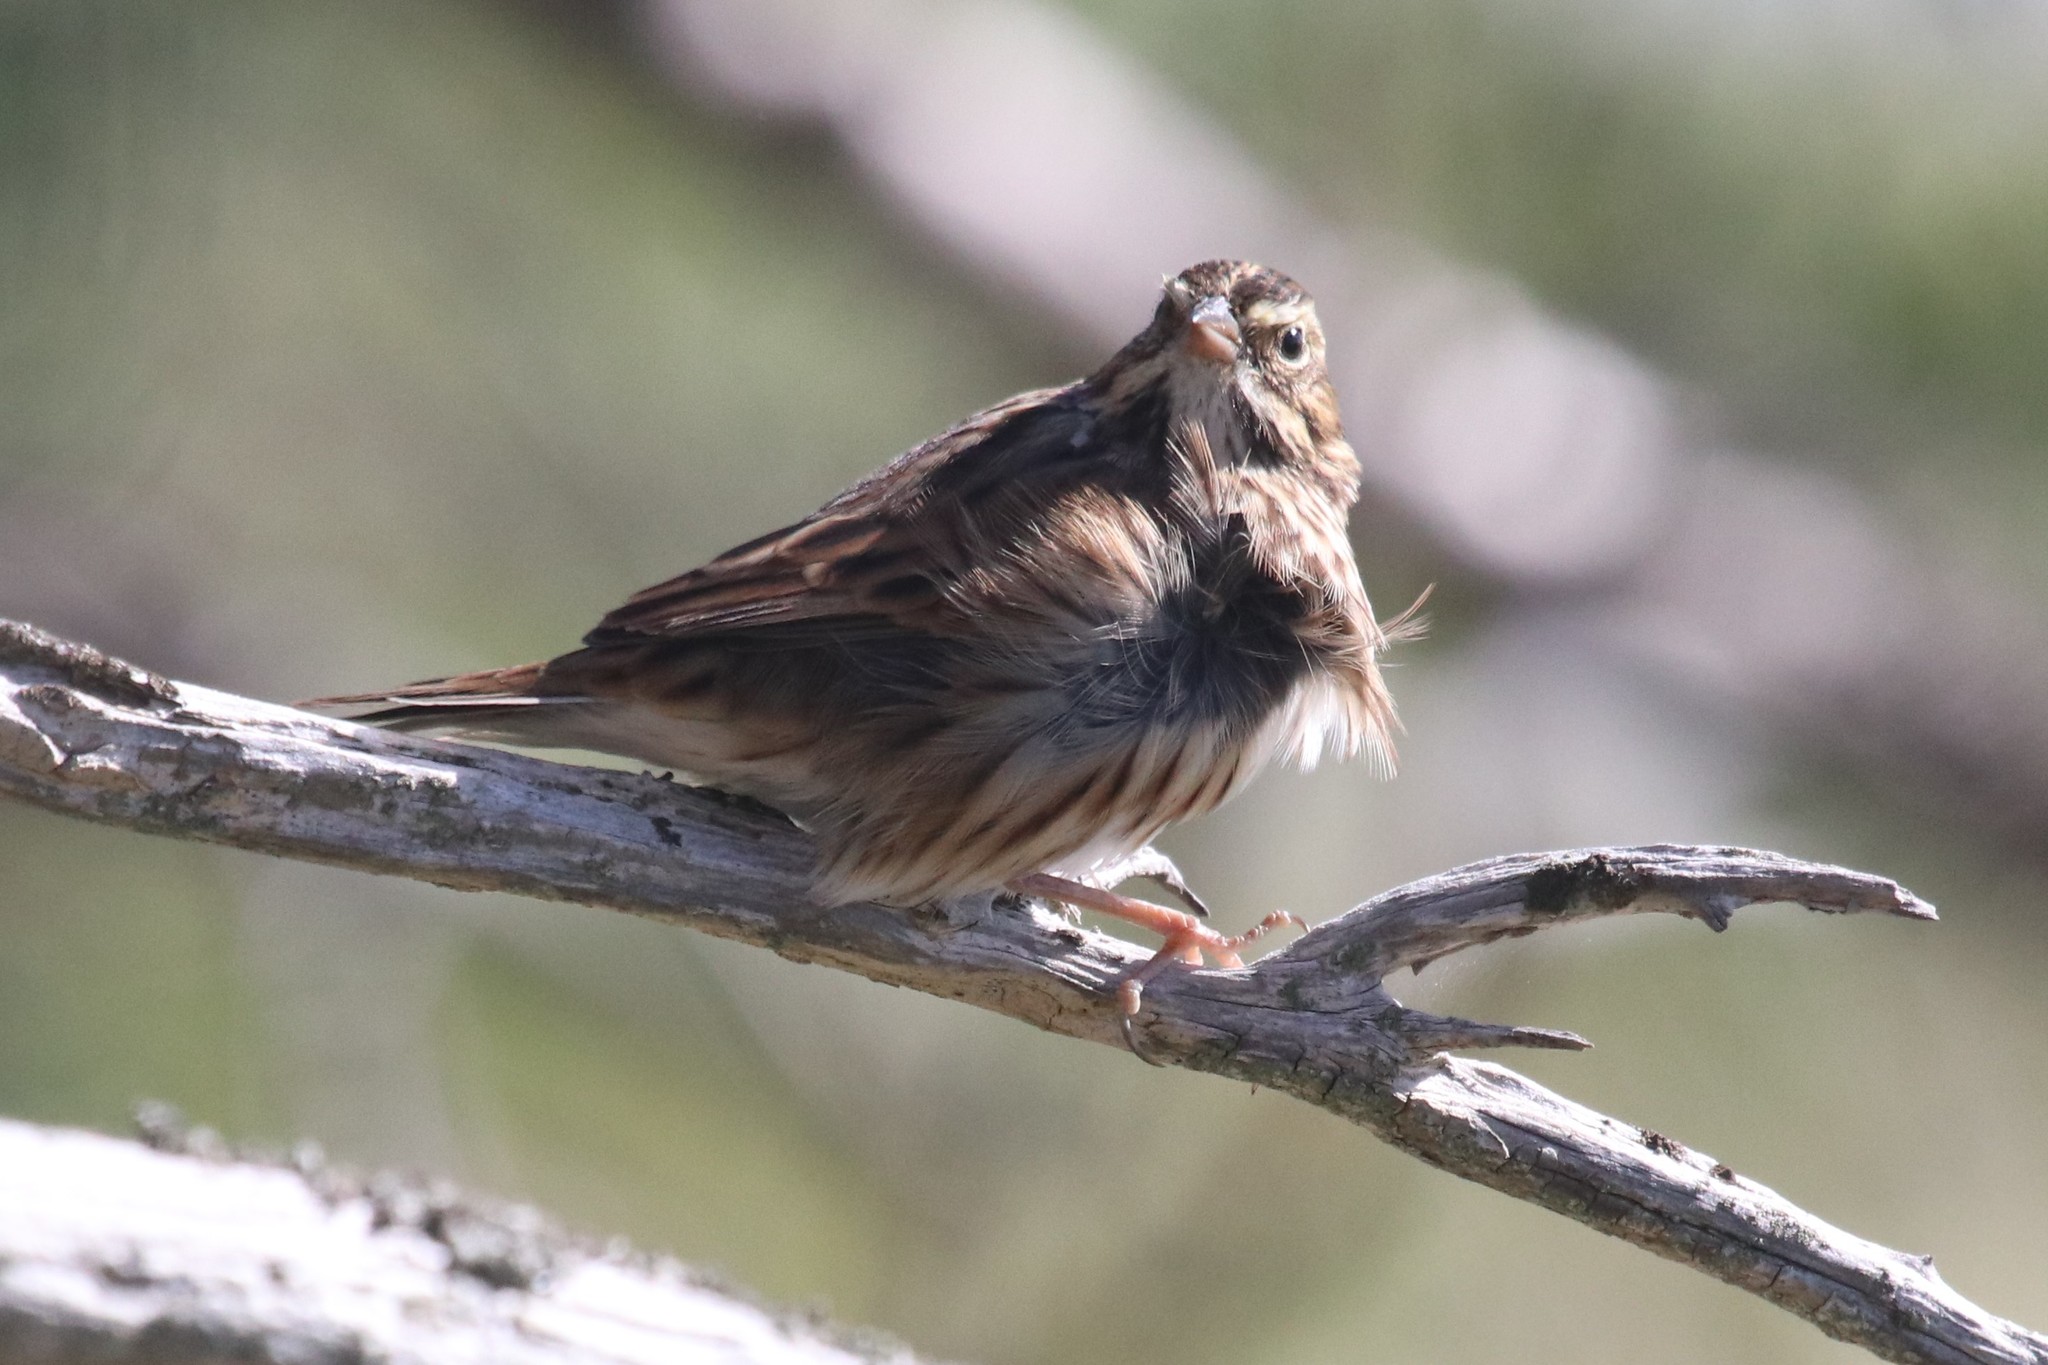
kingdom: Animalia
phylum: Chordata
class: Aves
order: Passeriformes
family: Passerellidae
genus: Passerculus
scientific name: Passerculus sandwichensis
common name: Savannah sparrow
